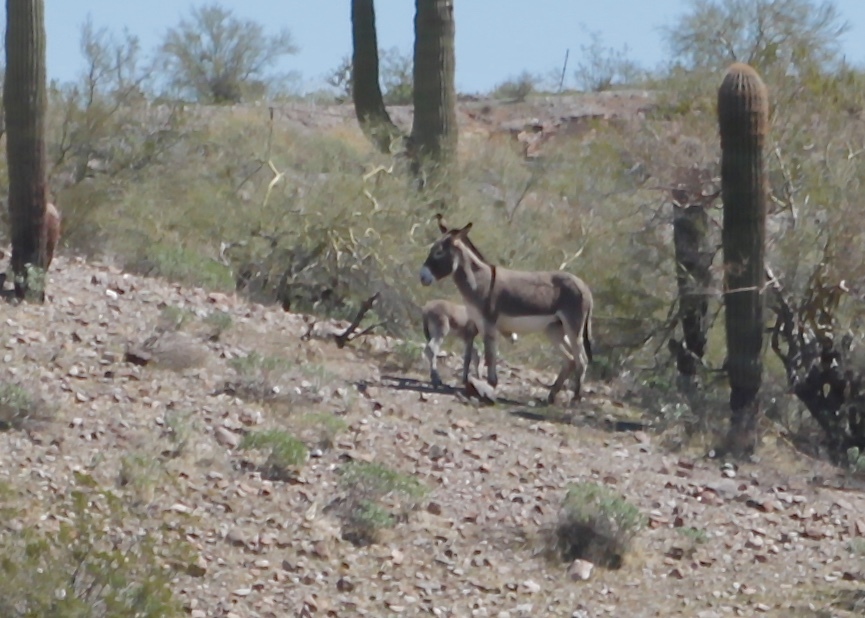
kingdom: Animalia
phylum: Chordata
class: Mammalia
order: Perissodactyla
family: Equidae
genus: Equus
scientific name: Equus asinus
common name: Ass
